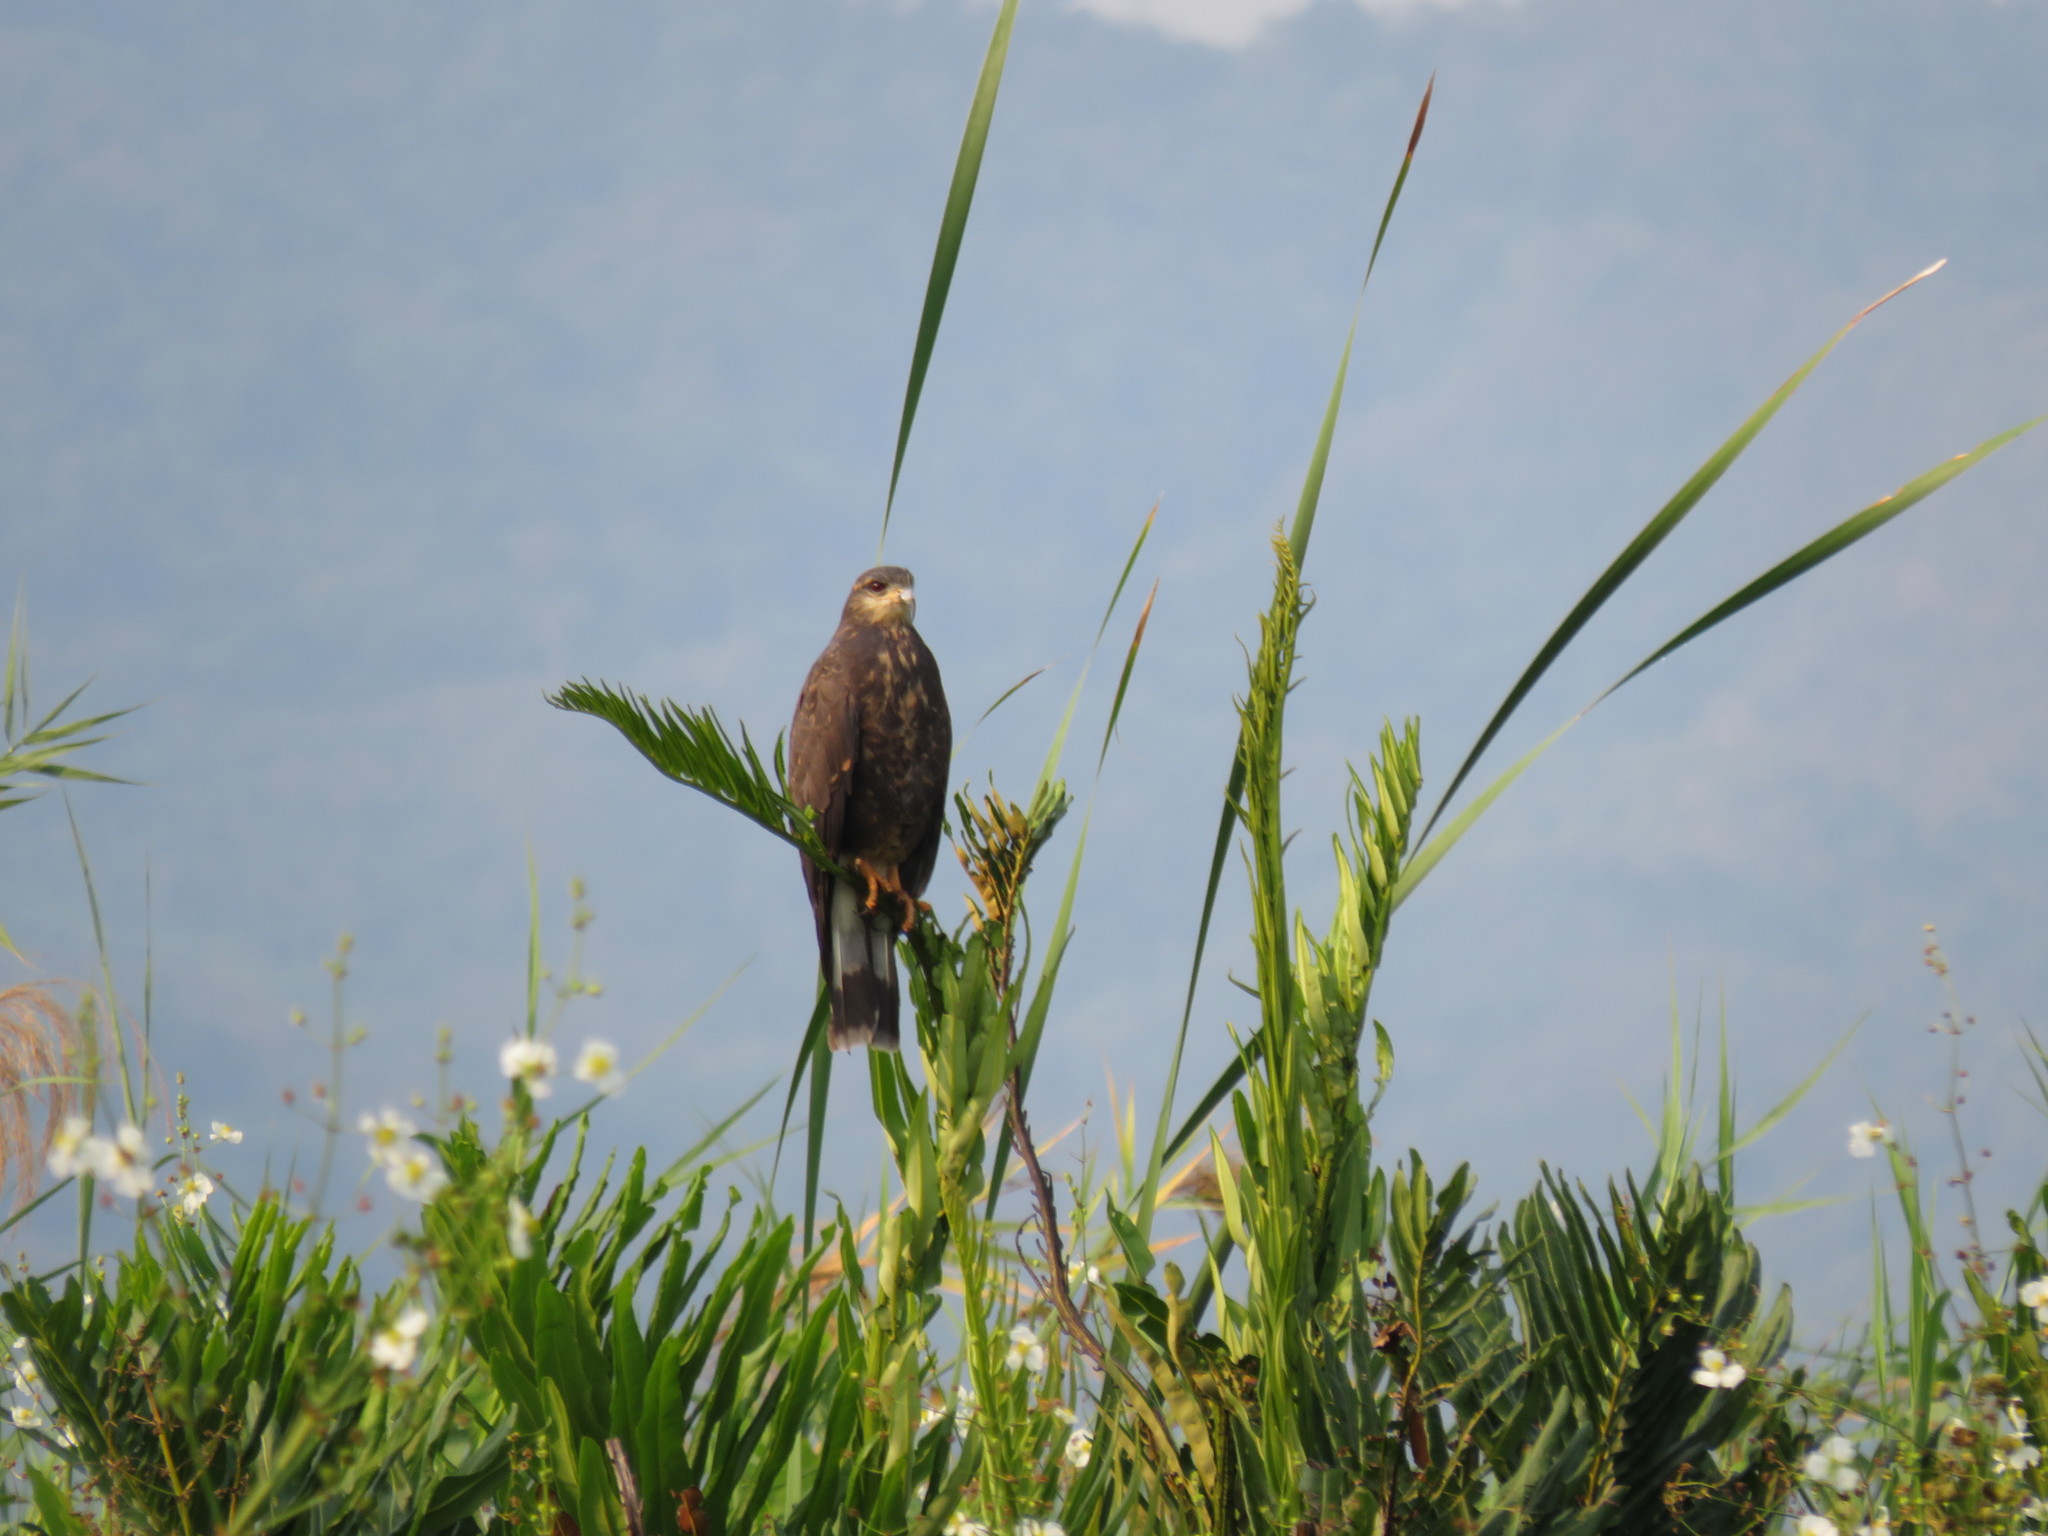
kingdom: Animalia
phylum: Chordata
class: Aves
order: Accipitriformes
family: Accipitridae
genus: Rostrhamus
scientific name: Rostrhamus sociabilis
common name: Snail kite
